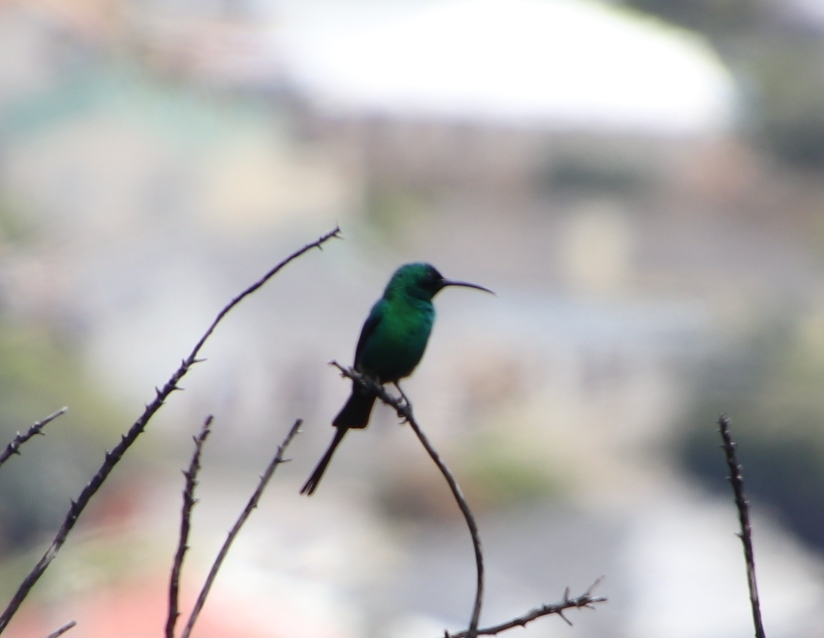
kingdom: Animalia
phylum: Chordata
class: Aves
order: Passeriformes
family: Nectariniidae
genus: Nectarinia
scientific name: Nectarinia famosa
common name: Malachite sunbird
